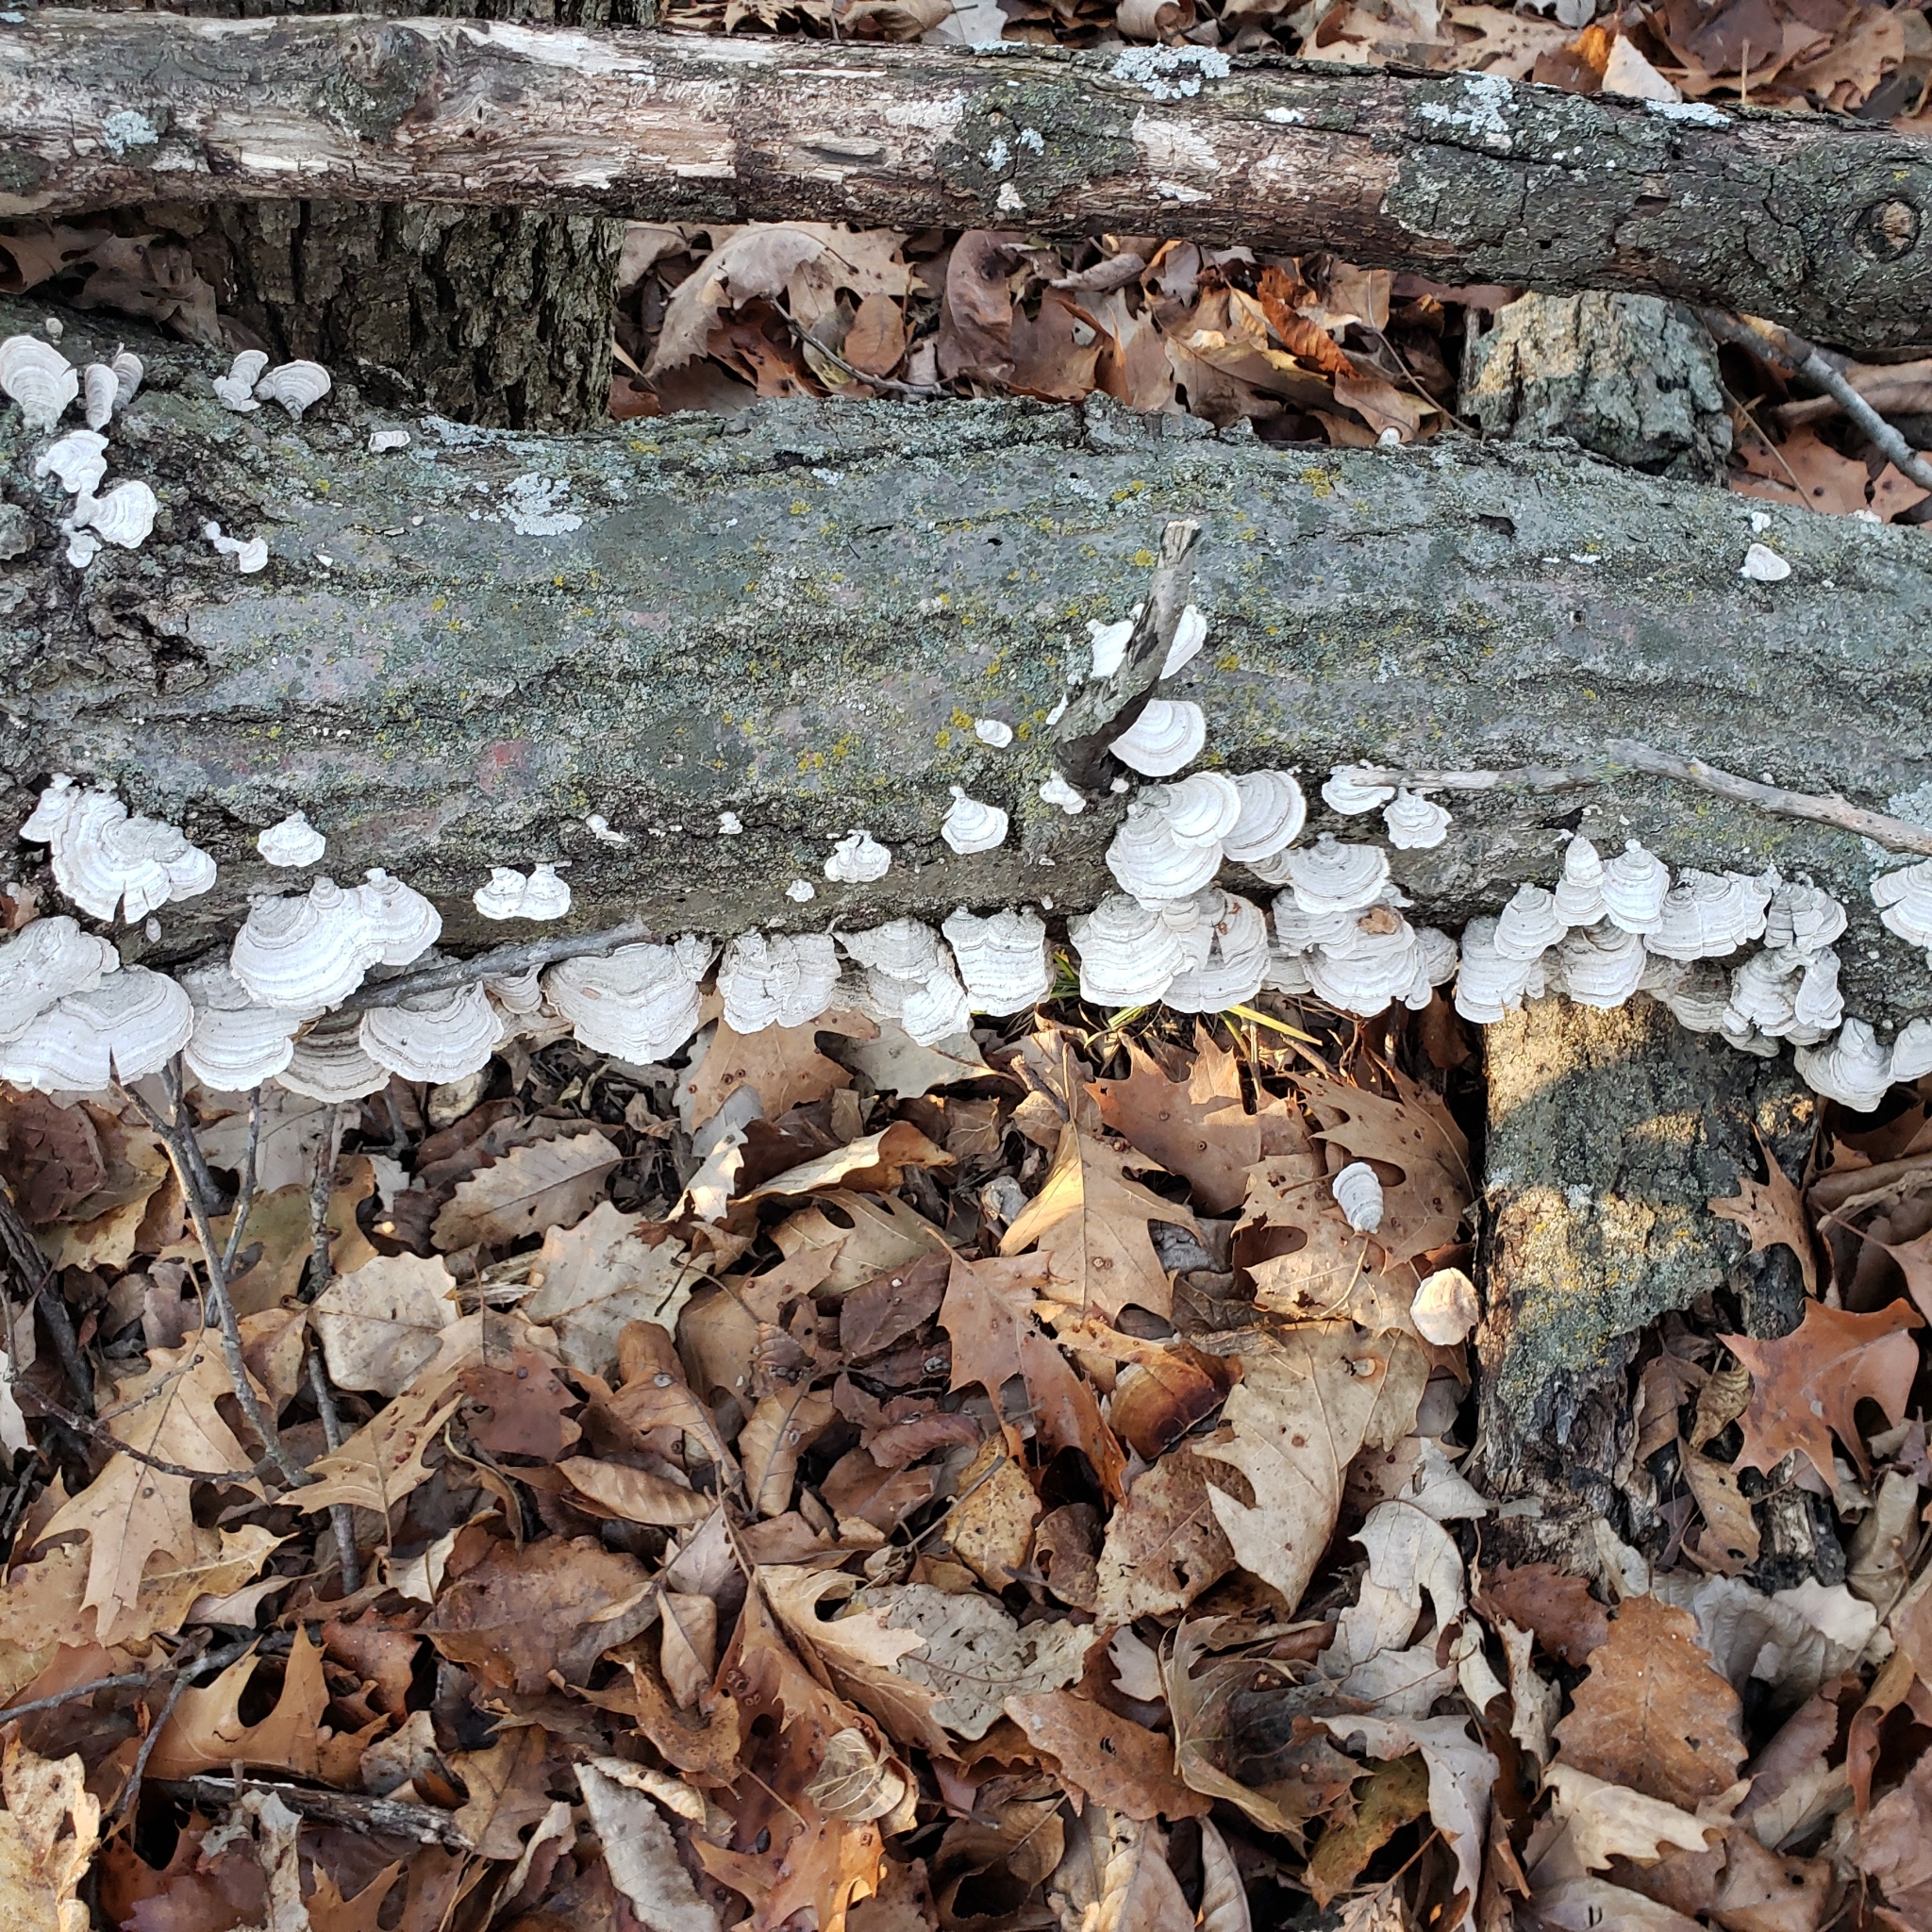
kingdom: Fungi
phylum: Basidiomycota
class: Agaricomycetes
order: Russulales
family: Stereaceae
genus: Stereum
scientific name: Stereum ostrea
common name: False turkeytail
